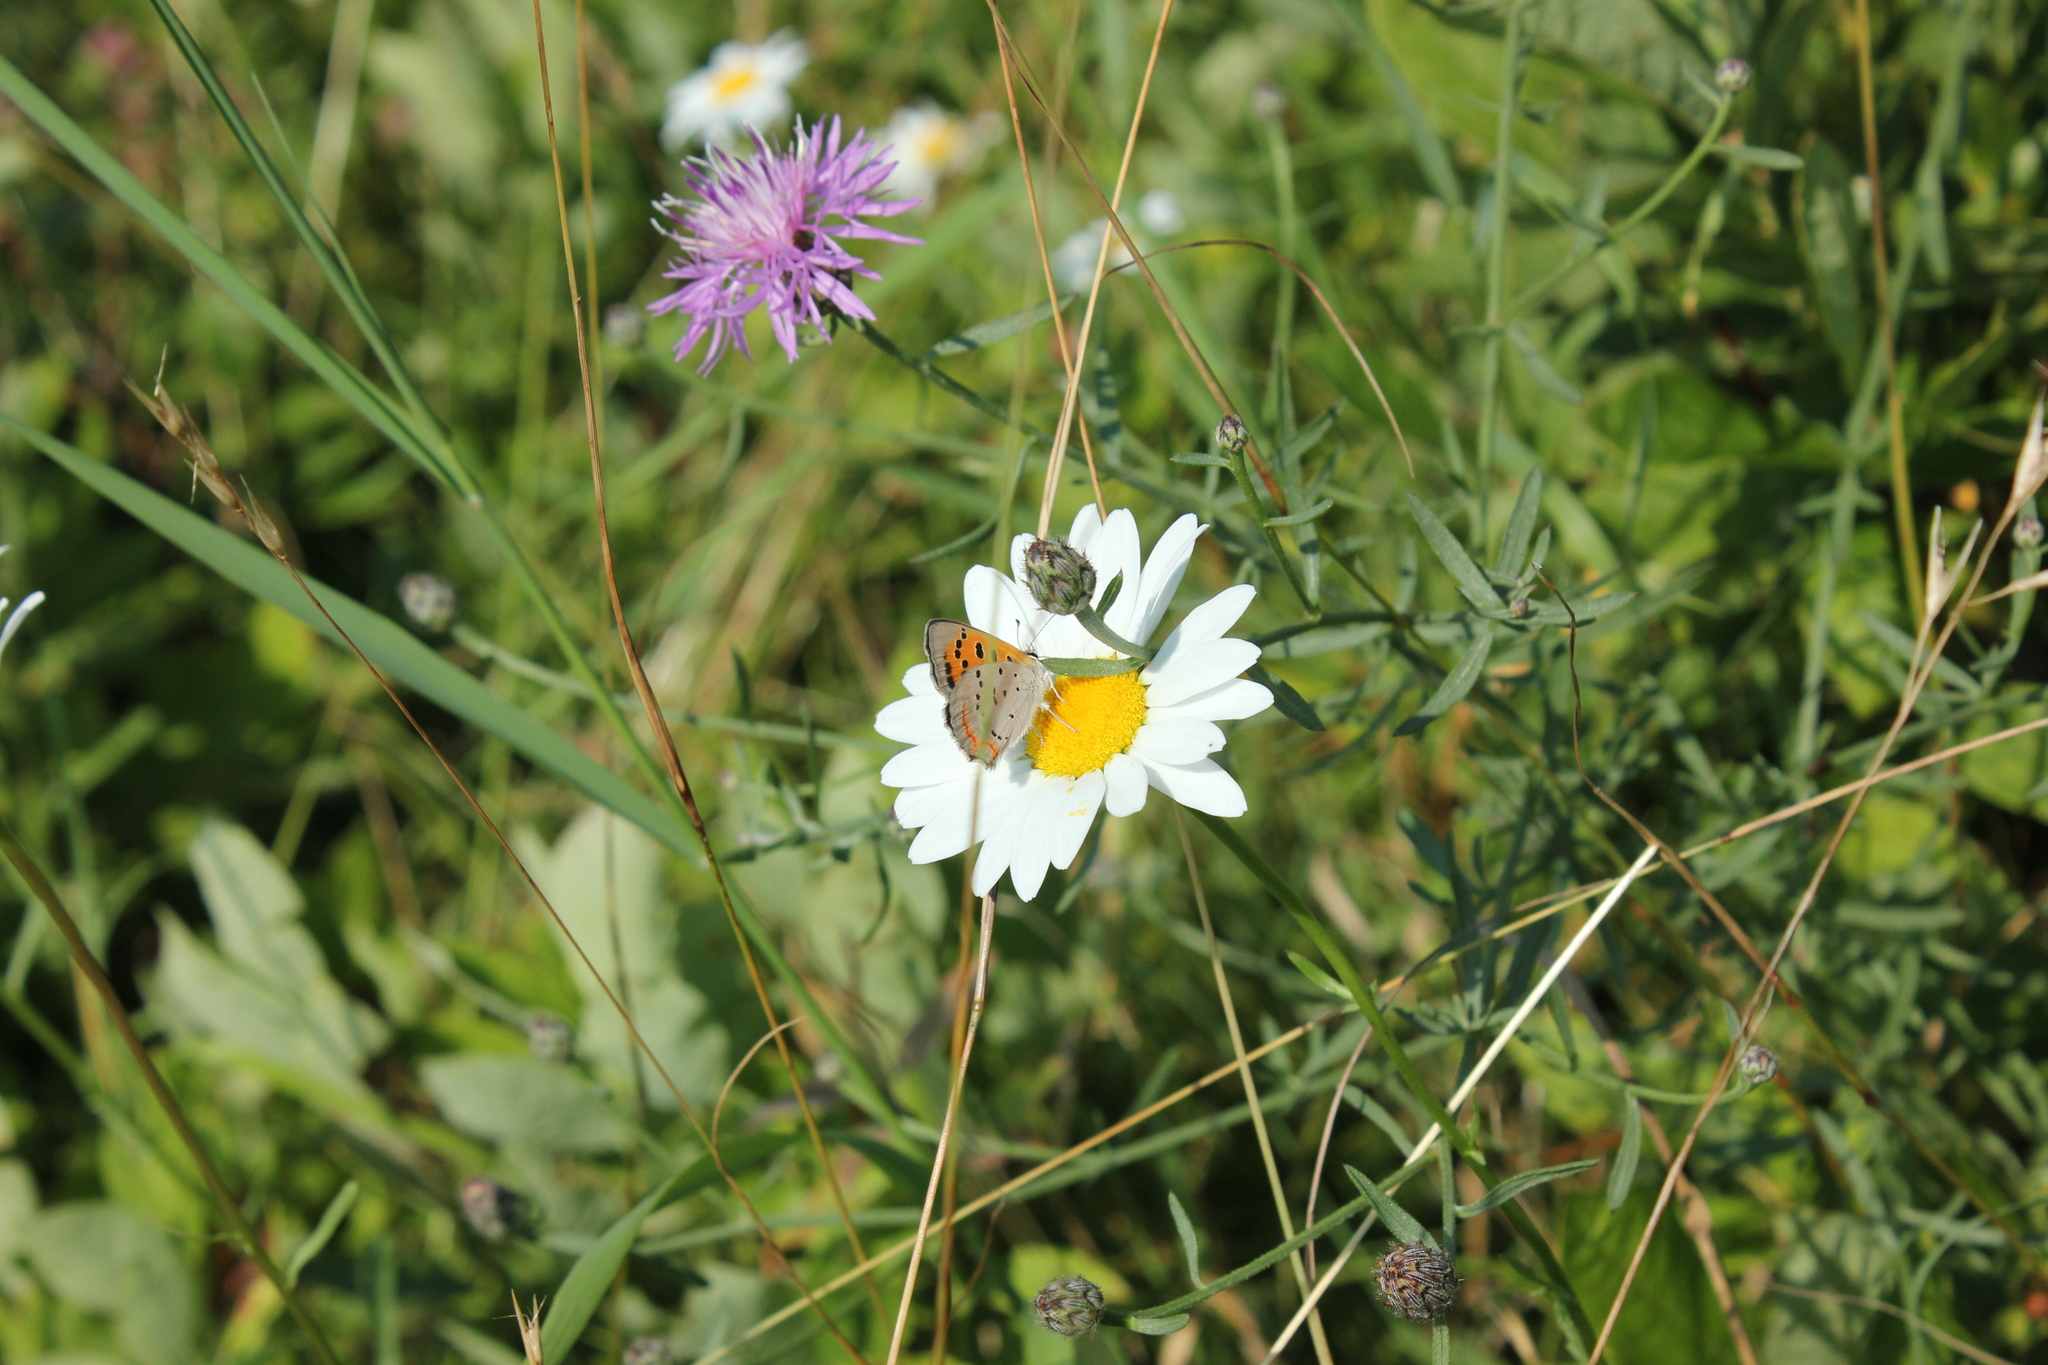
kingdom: Animalia
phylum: Arthropoda
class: Insecta
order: Lepidoptera
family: Lycaenidae
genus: Lycaena
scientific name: Lycaena hypophlaeas
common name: American copper
